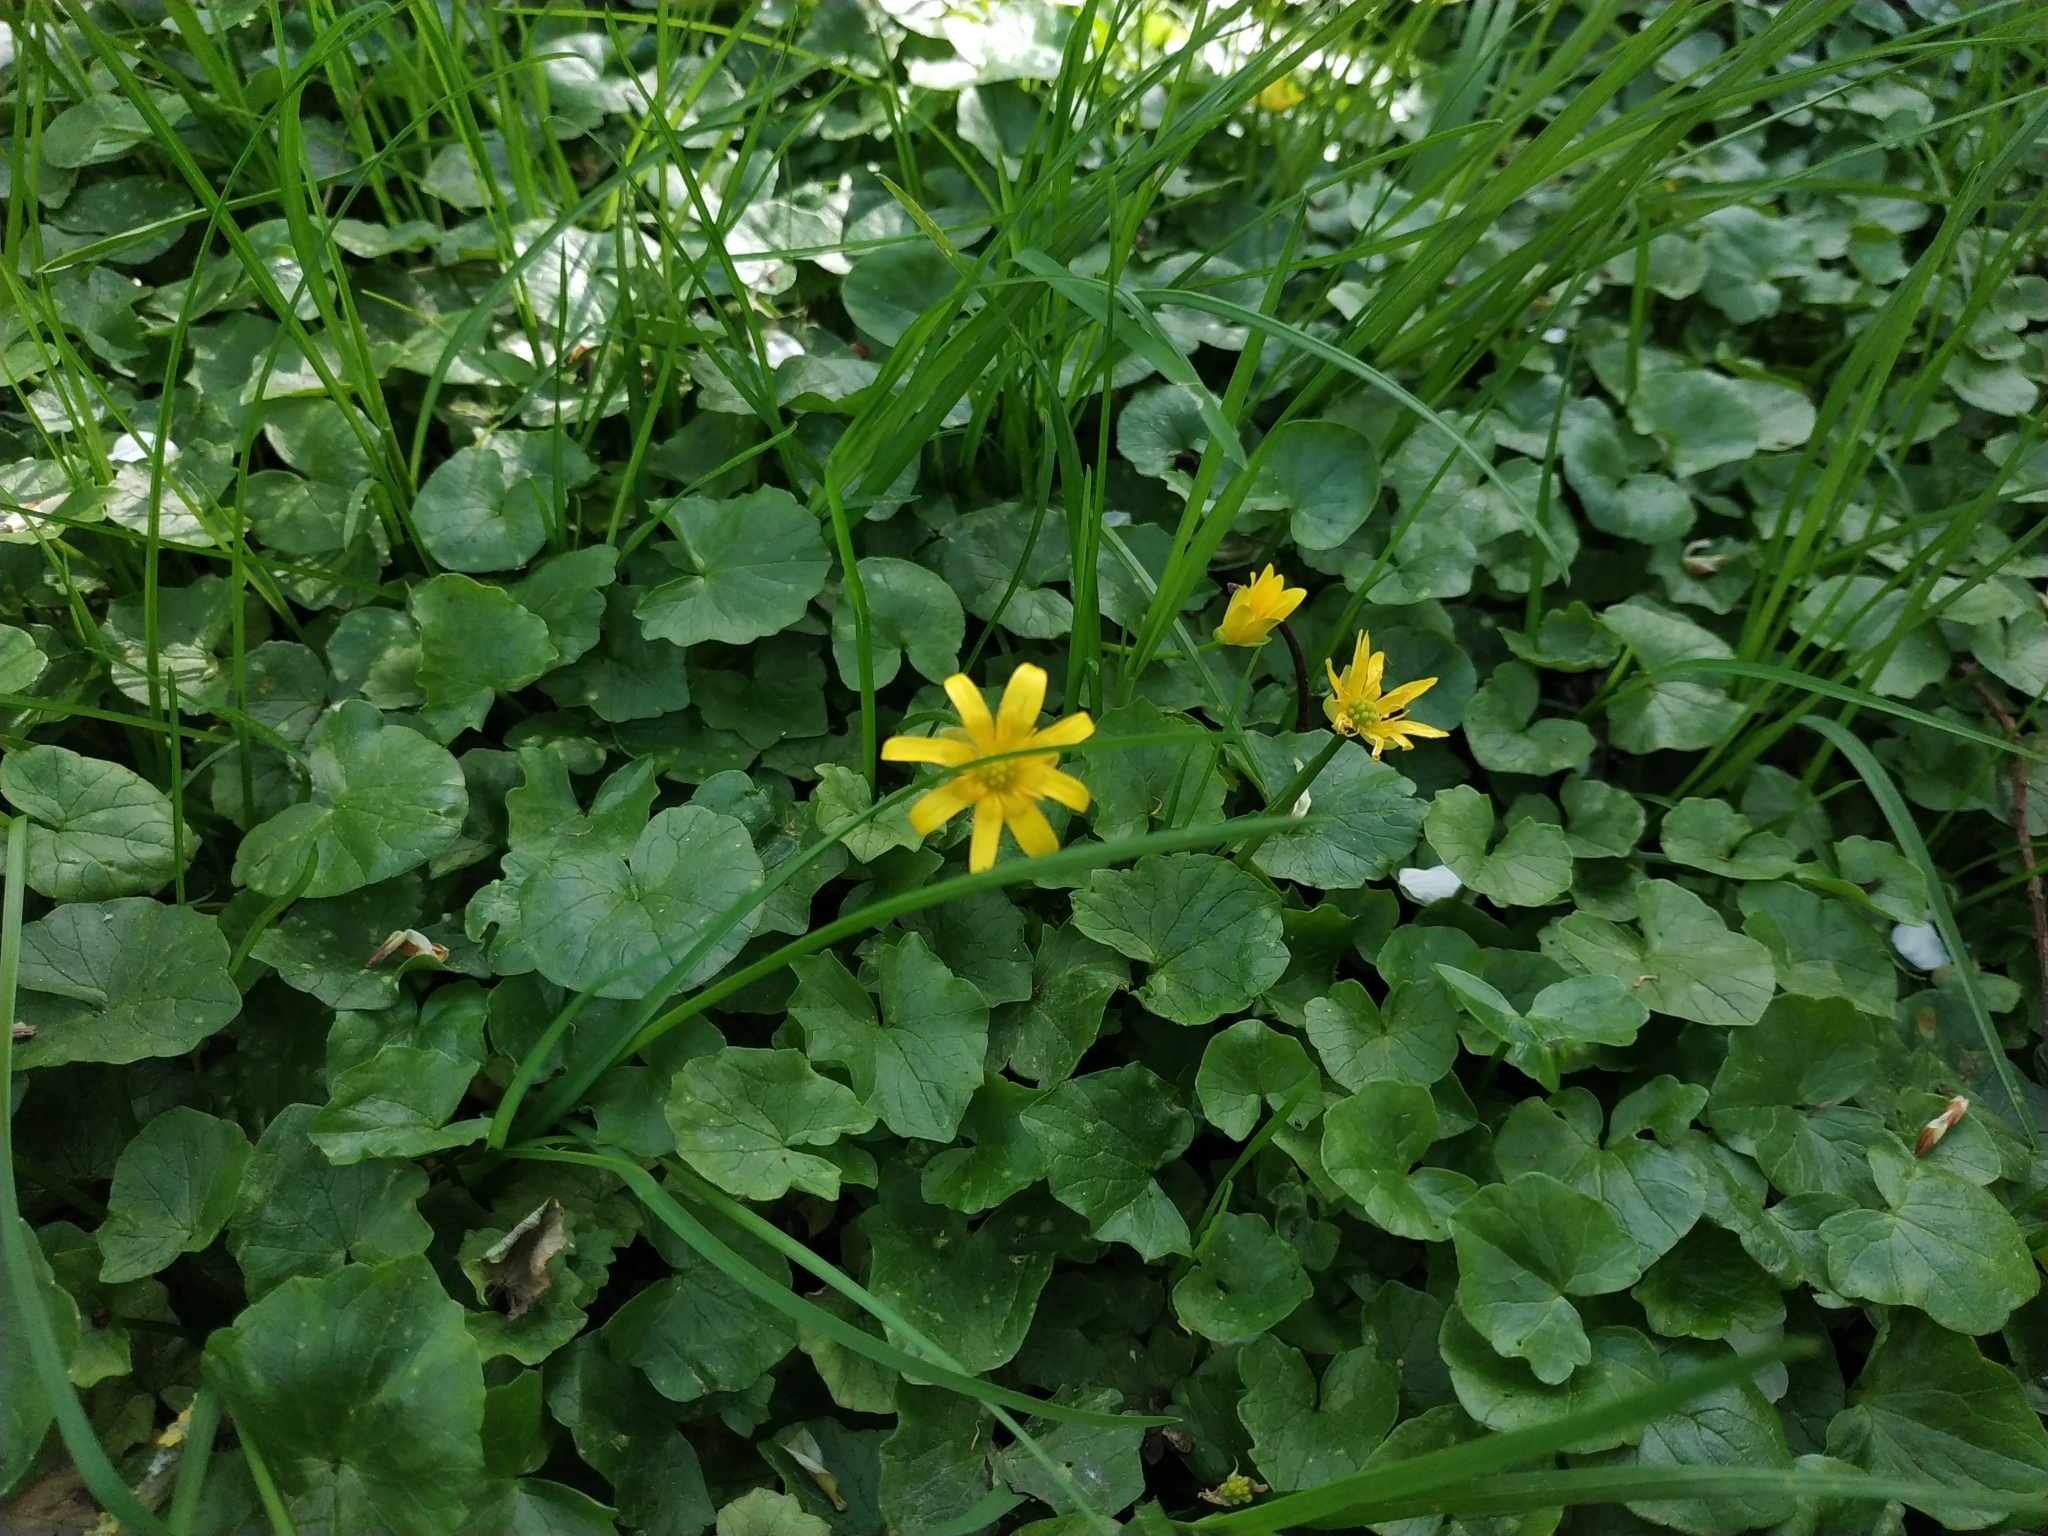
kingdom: Plantae
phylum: Tracheophyta
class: Magnoliopsida
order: Ranunculales
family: Ranunculaceae
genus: Ficaria
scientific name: Ficaria verna
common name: Lesser celandine
